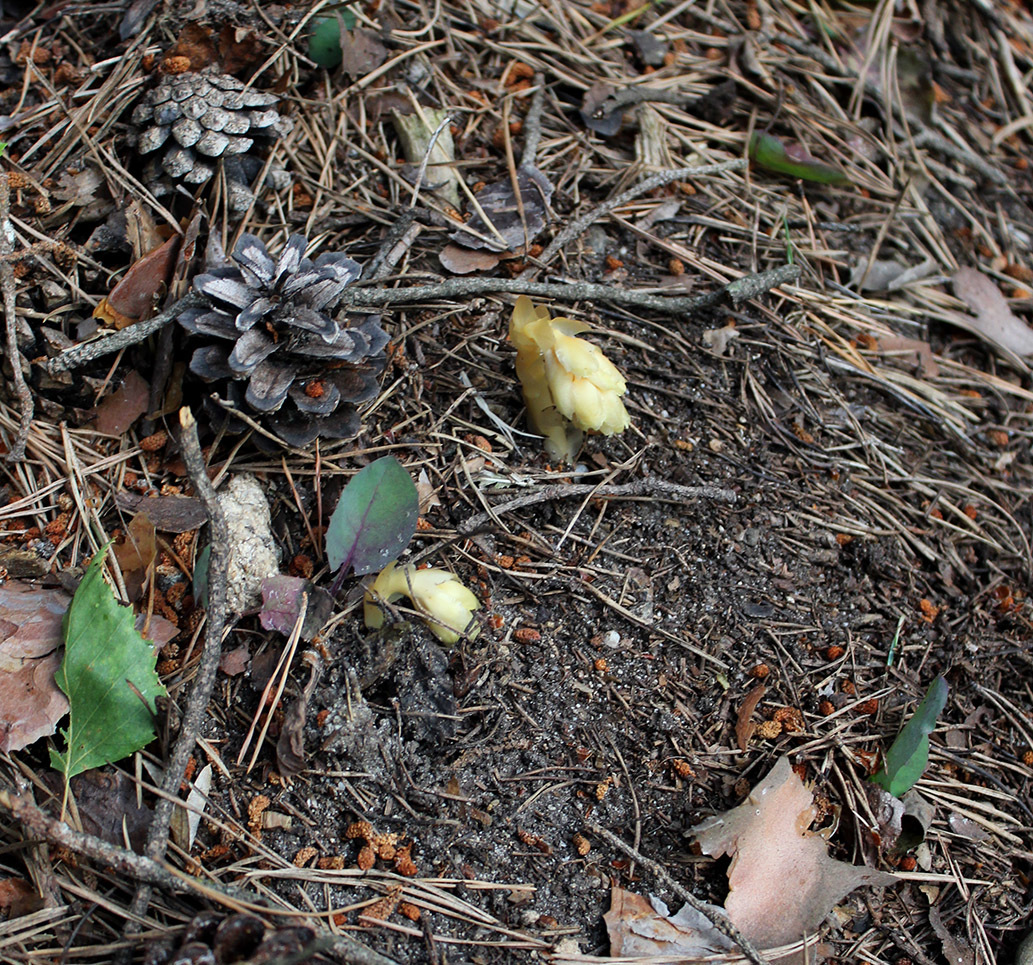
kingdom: Plantae
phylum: Tracheophyta
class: Magnoliopsida
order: Ericales
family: Ericaceae
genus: Hypopitys
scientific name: Hypopitys monotropa
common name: Yellow bird's-nest
